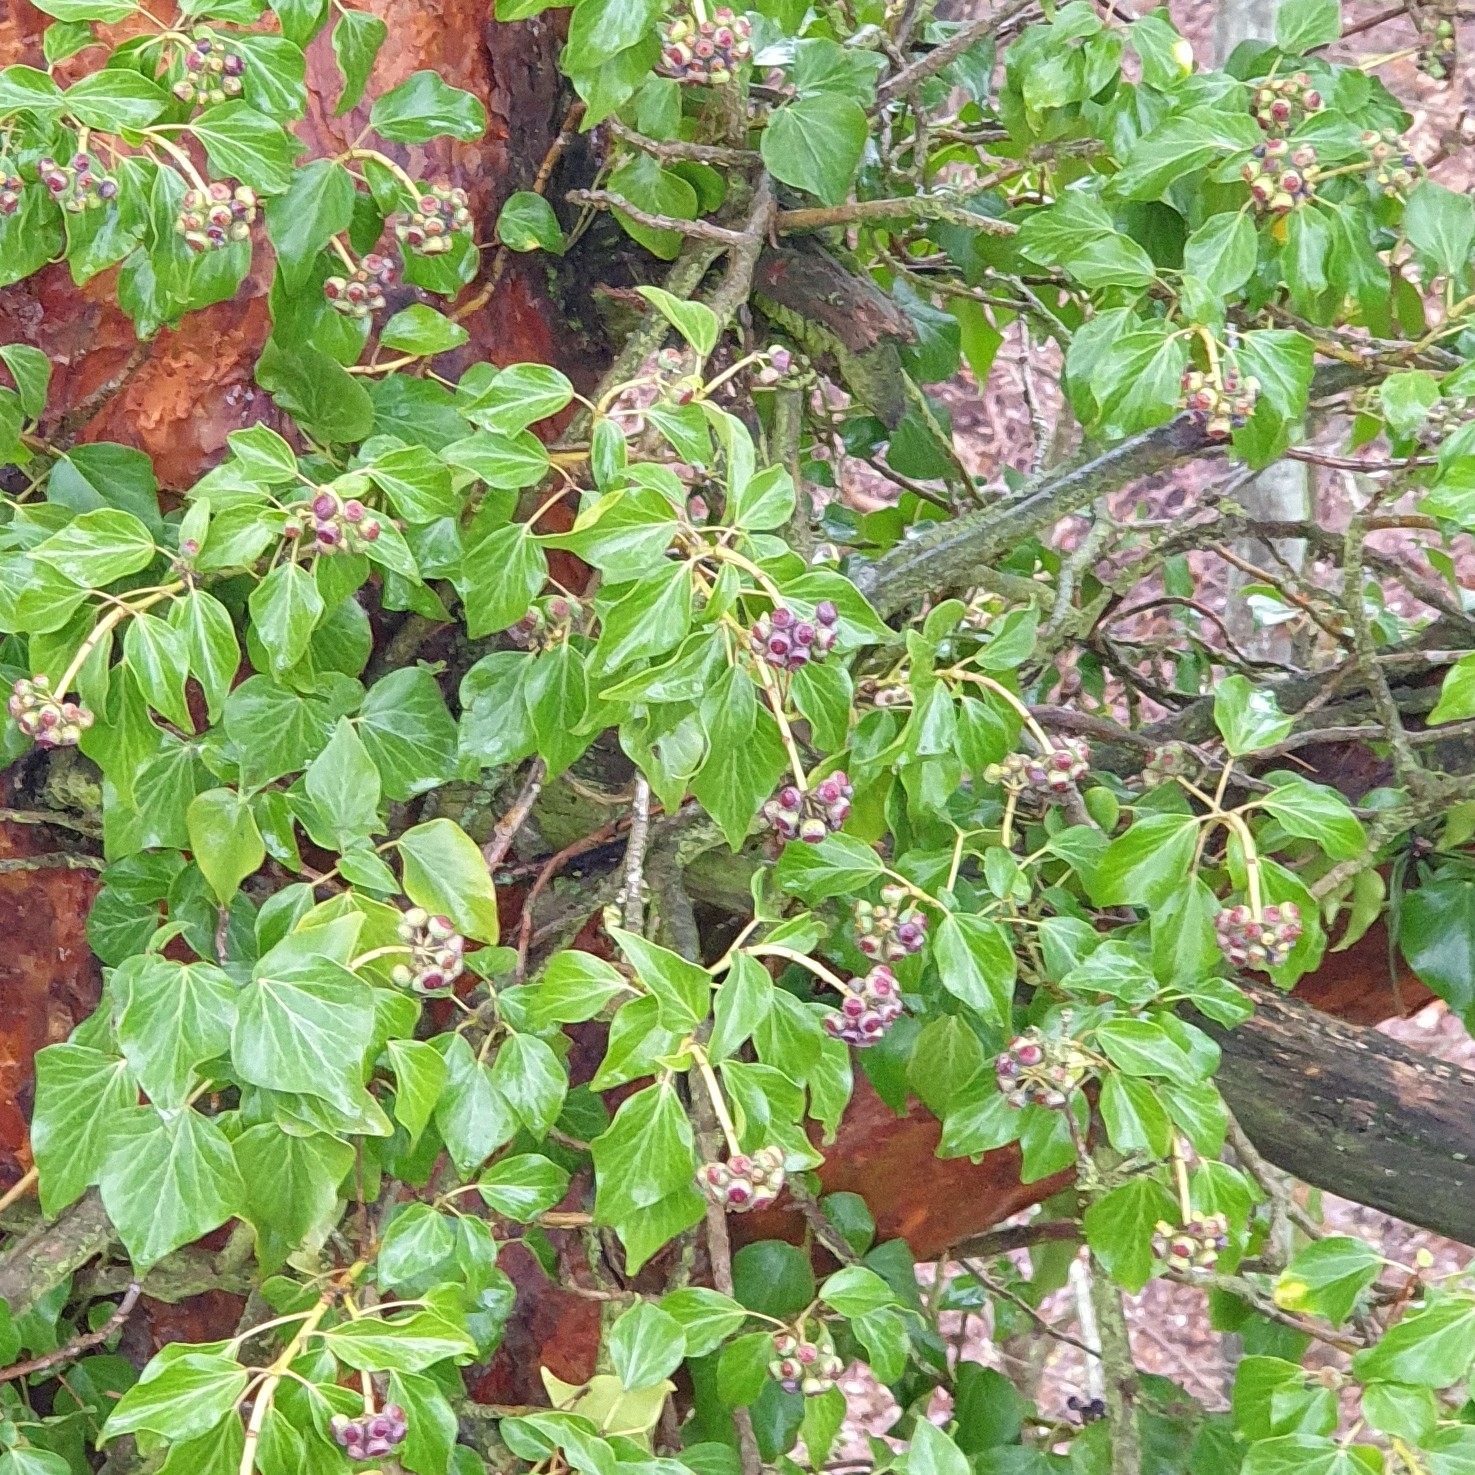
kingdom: Plantae
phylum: Tracheophyta
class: Magnoliopsida
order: Apiales
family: Araliaceae
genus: Hedera
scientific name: Hedera helix
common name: Ivy
